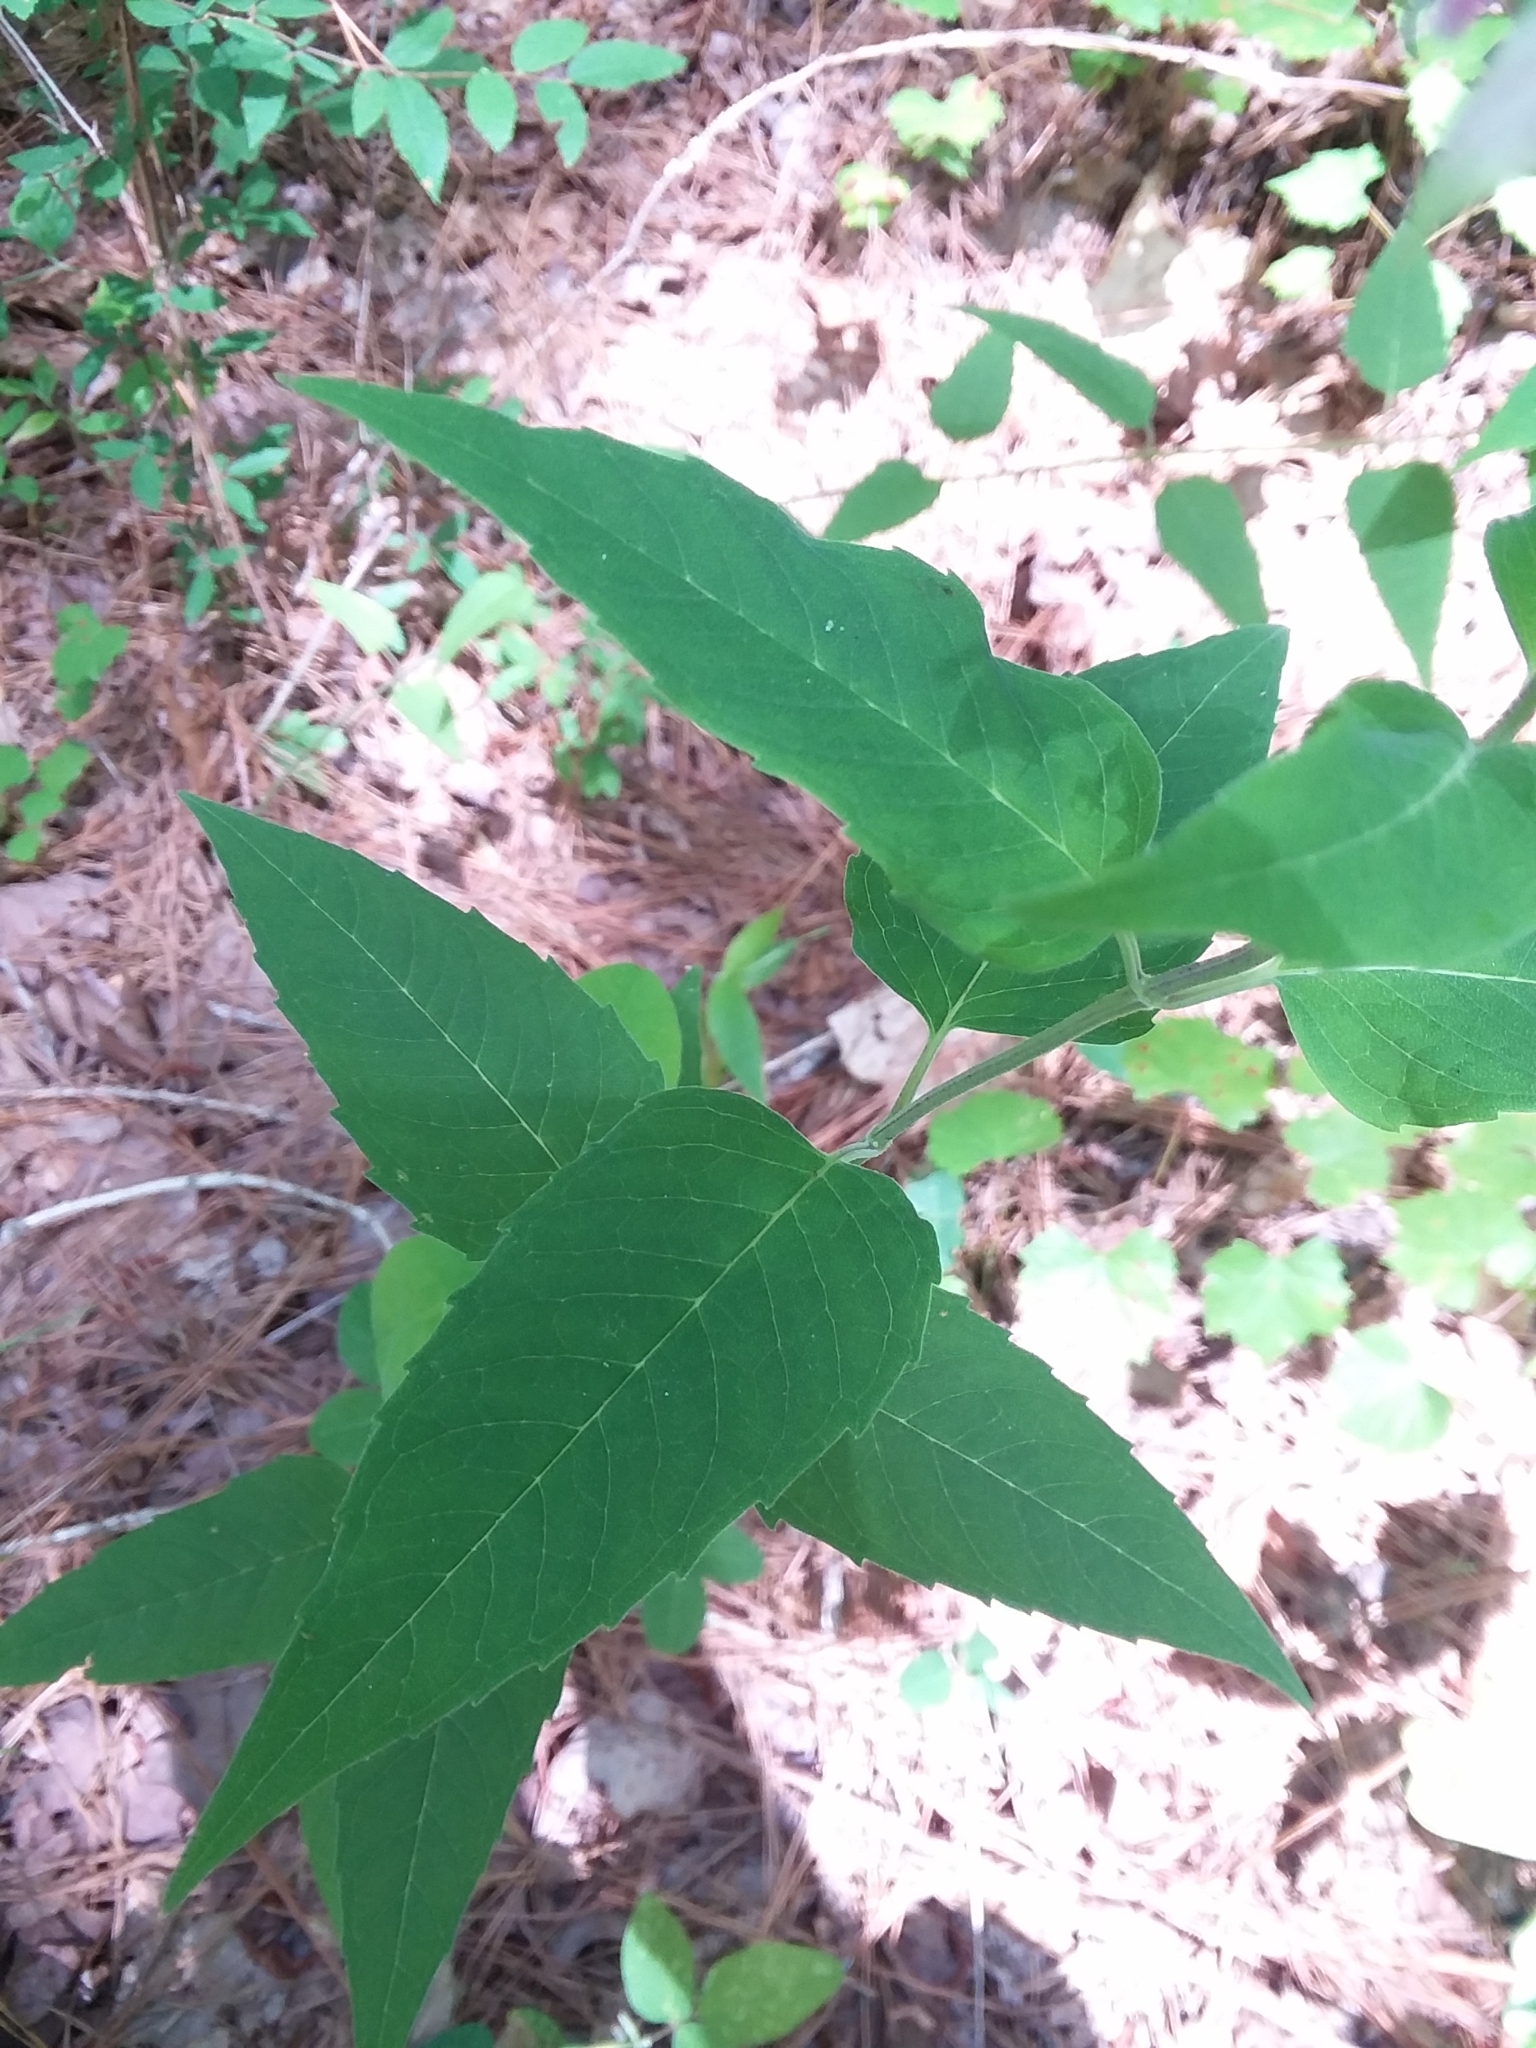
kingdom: Plantae
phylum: Tracheophyta
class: Magnoliopsida
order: Lamiales
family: Lamiaceae
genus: Monarda
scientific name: Monarda fistulosa
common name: Purple beebalm
